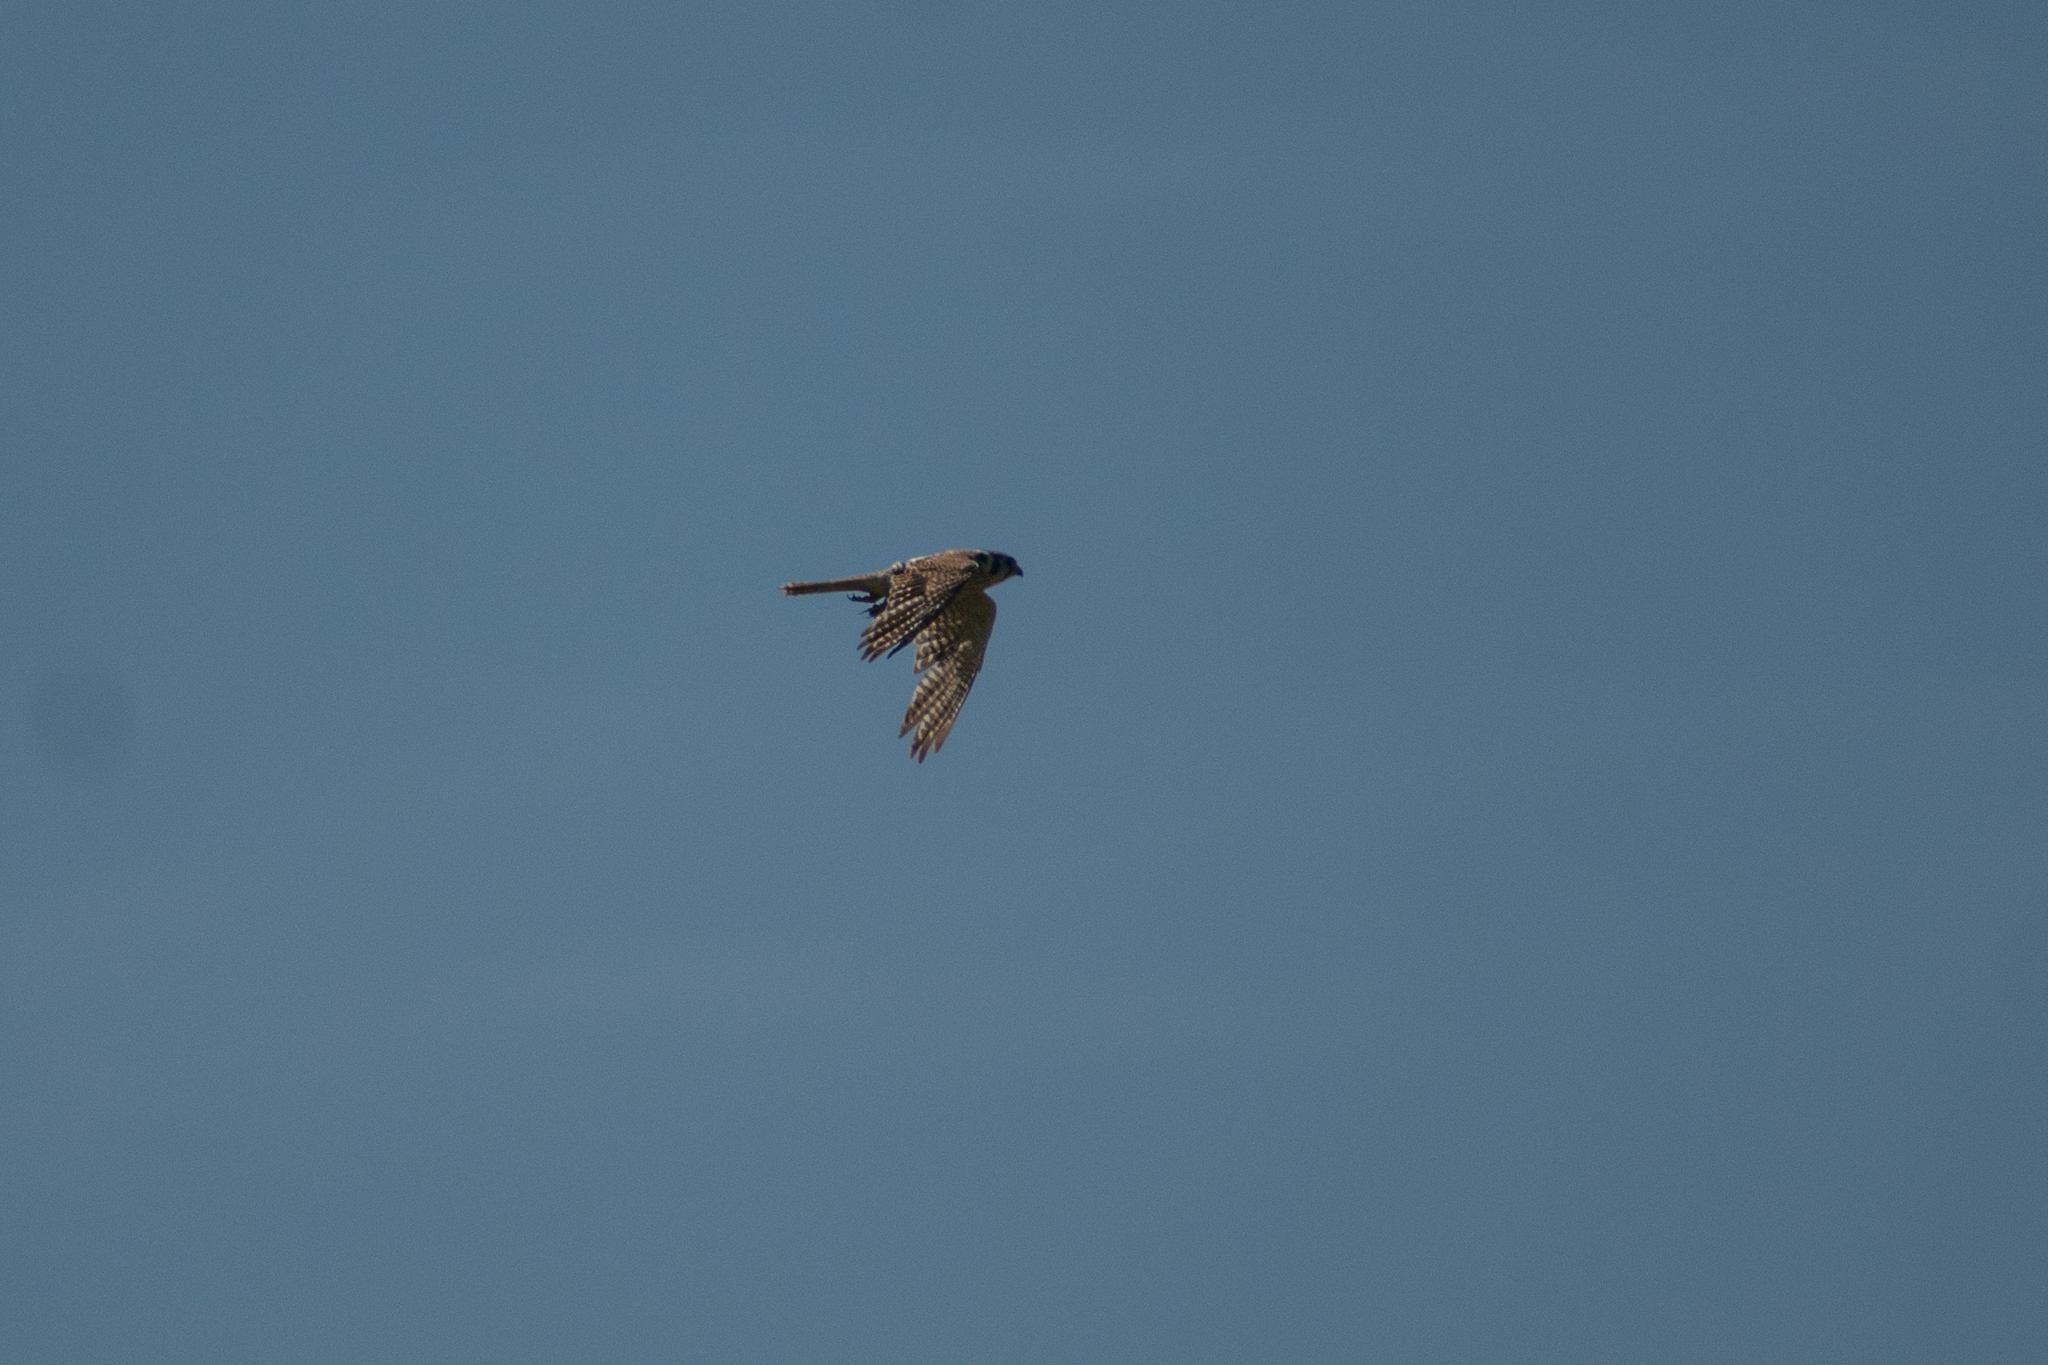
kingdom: Animalia
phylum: Chordata
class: Aves
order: Falconiformes
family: Falconidae
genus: Falco
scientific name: Falco sparverius
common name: American kestrel
